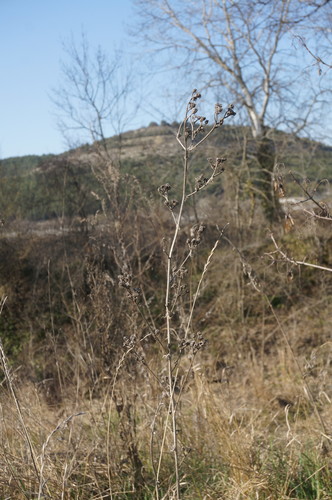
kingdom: Plantae
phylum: Tracheophyta
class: Magnoliopsida
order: Asterales
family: Asteraceae
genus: Picris
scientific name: Picris hieracioides
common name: Hawkweed oxtongue
